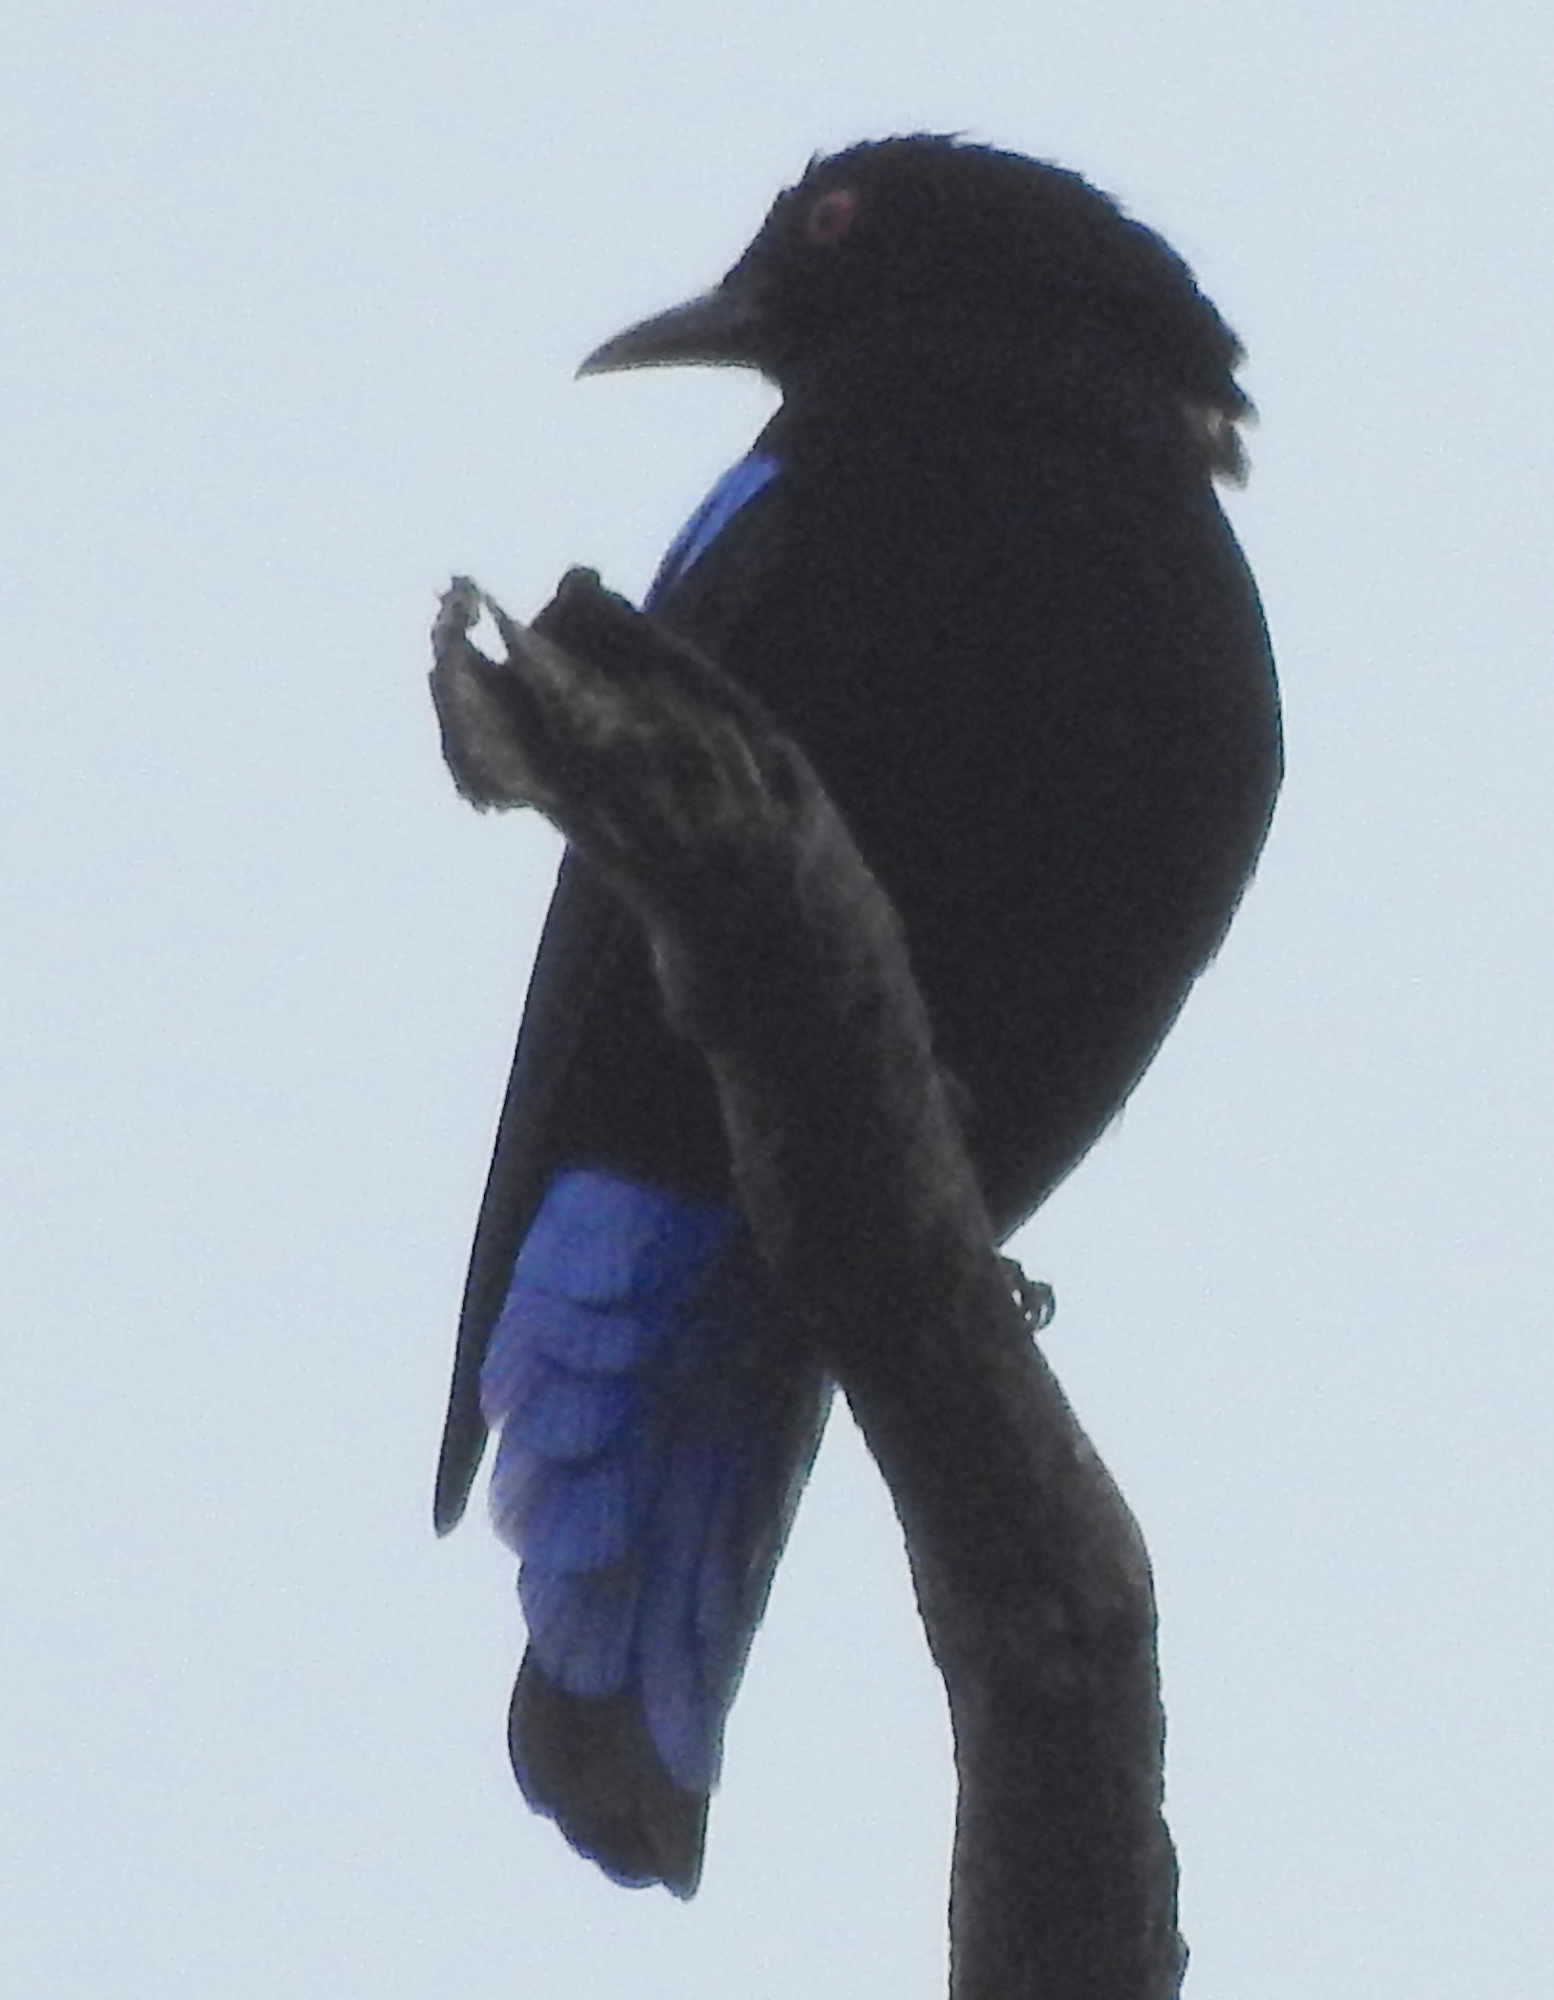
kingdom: Animalia
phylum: Chordata
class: Aves
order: Passeriformes
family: Irenidae
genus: Irena
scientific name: Irena puella
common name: Asian fairy-bluebird
